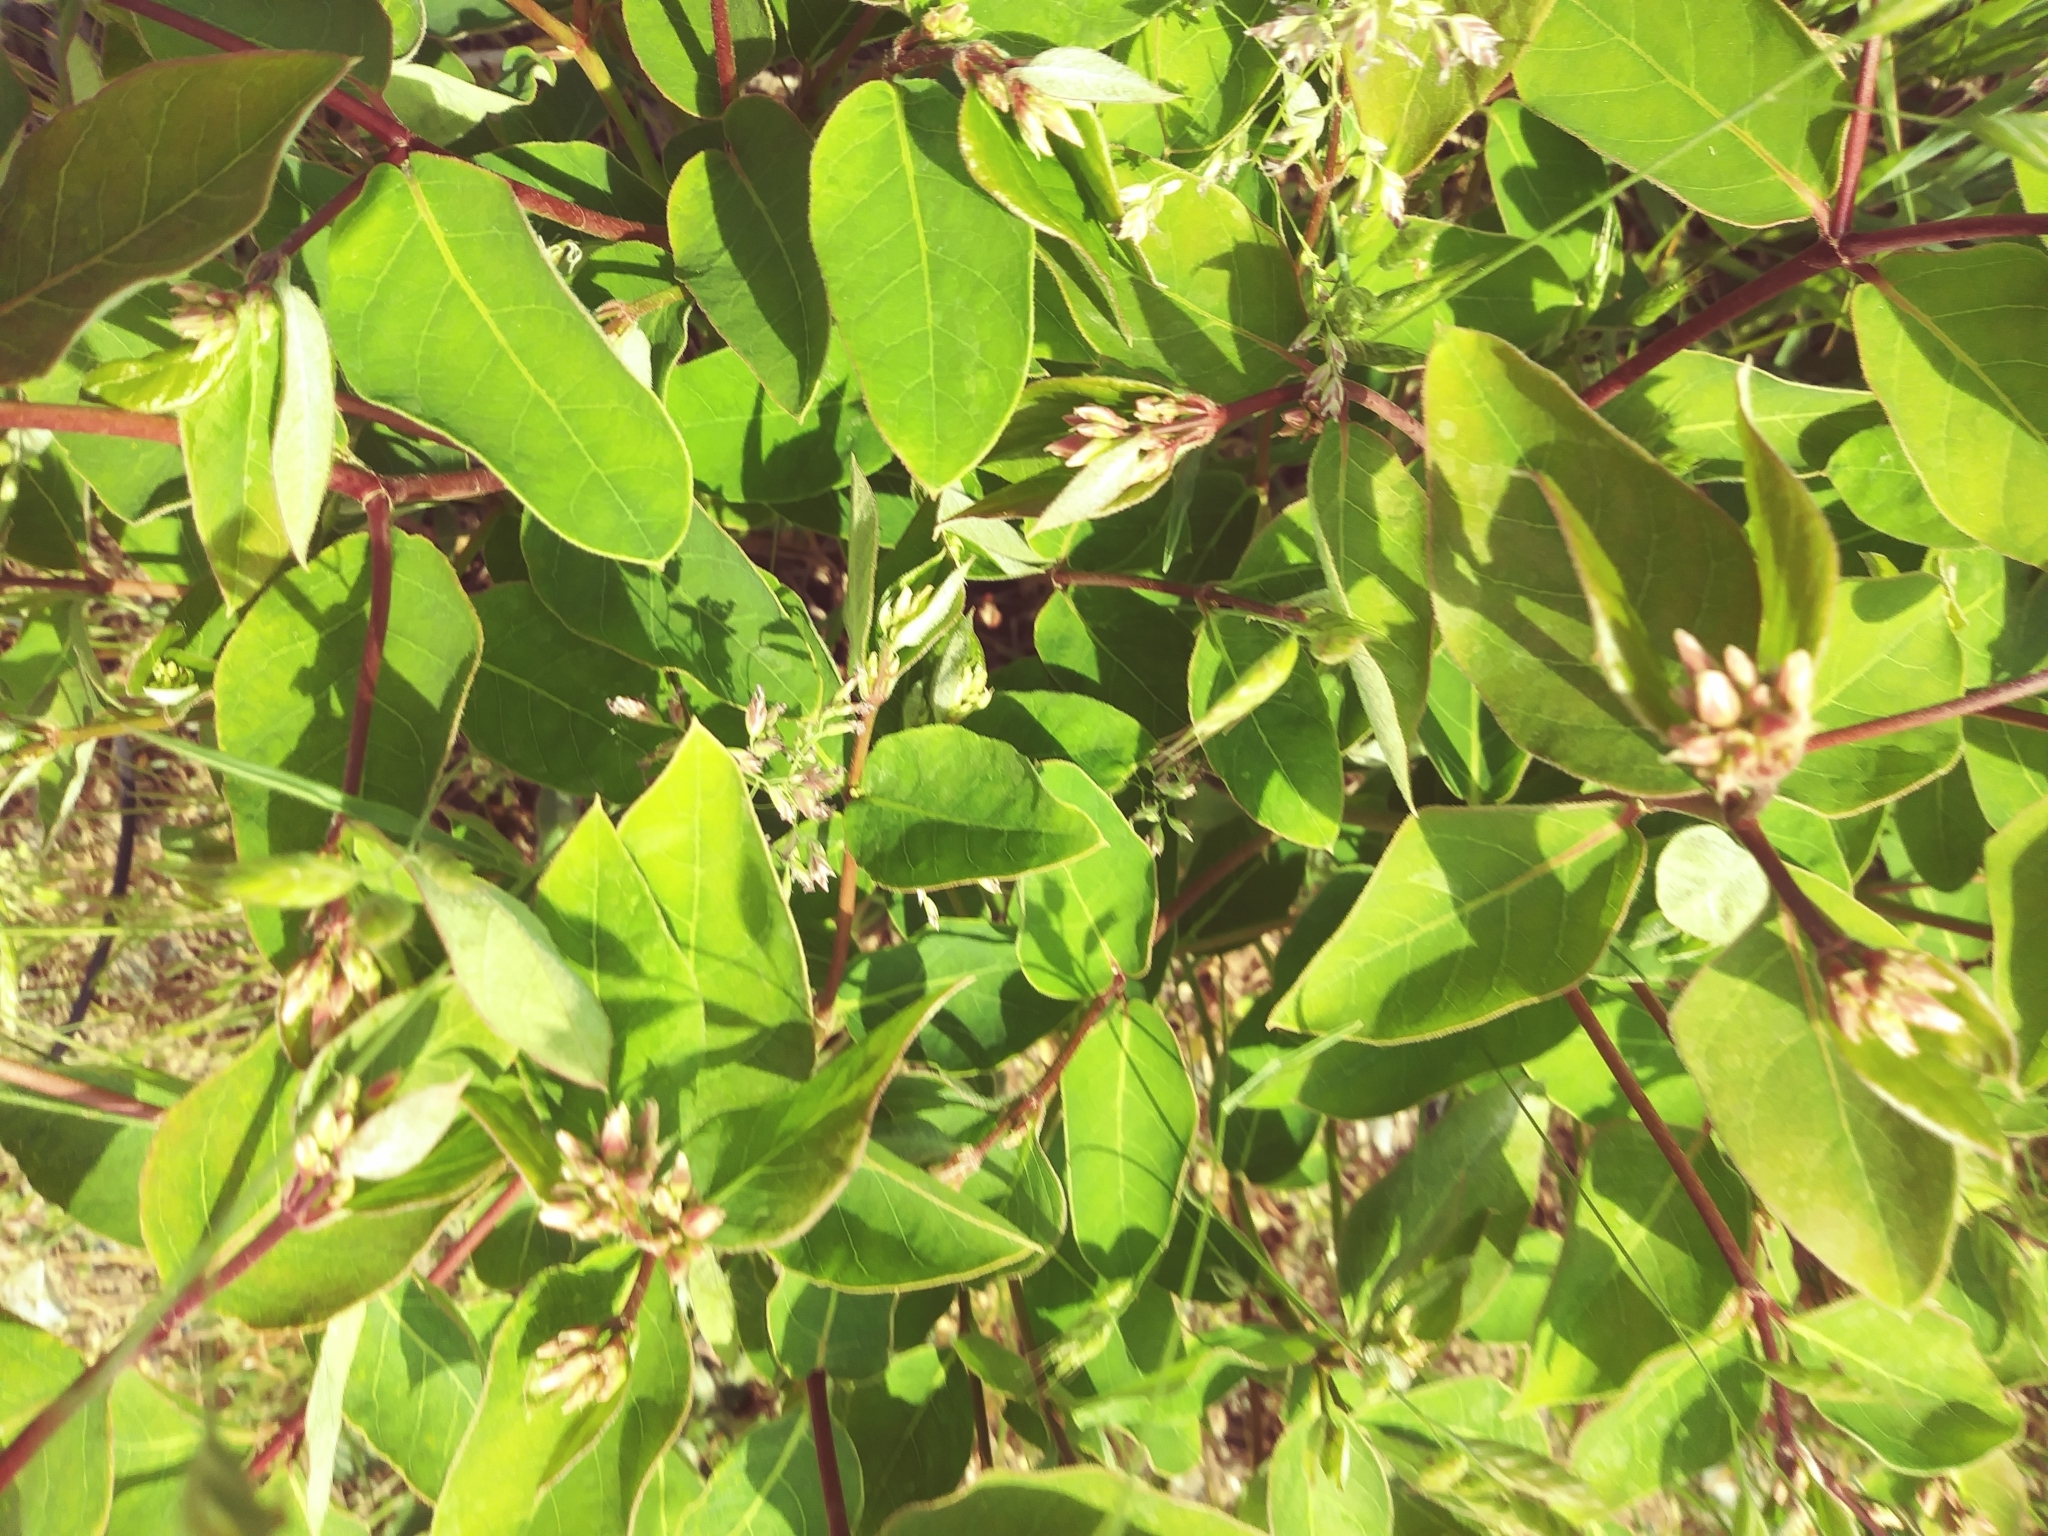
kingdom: Plantae
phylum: Tracheophyta
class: Magnoliopsida
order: Gentianales
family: Apocynaceae
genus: Apocynum
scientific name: Apocynum androsaemifolium
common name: Spreading dogbane
